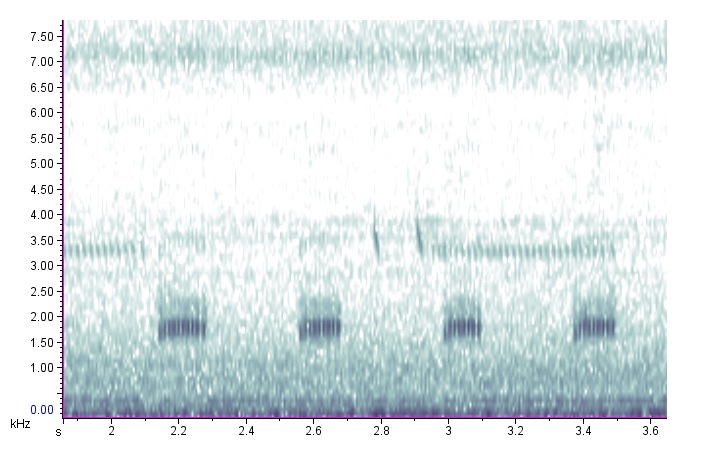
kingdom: Animalia
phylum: Arthropoda
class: Insecta
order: Orthoptera
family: Gryllotalpidae
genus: Neocurtilla
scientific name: Neocurtilla hexadactyla
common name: Northern mole cricket
